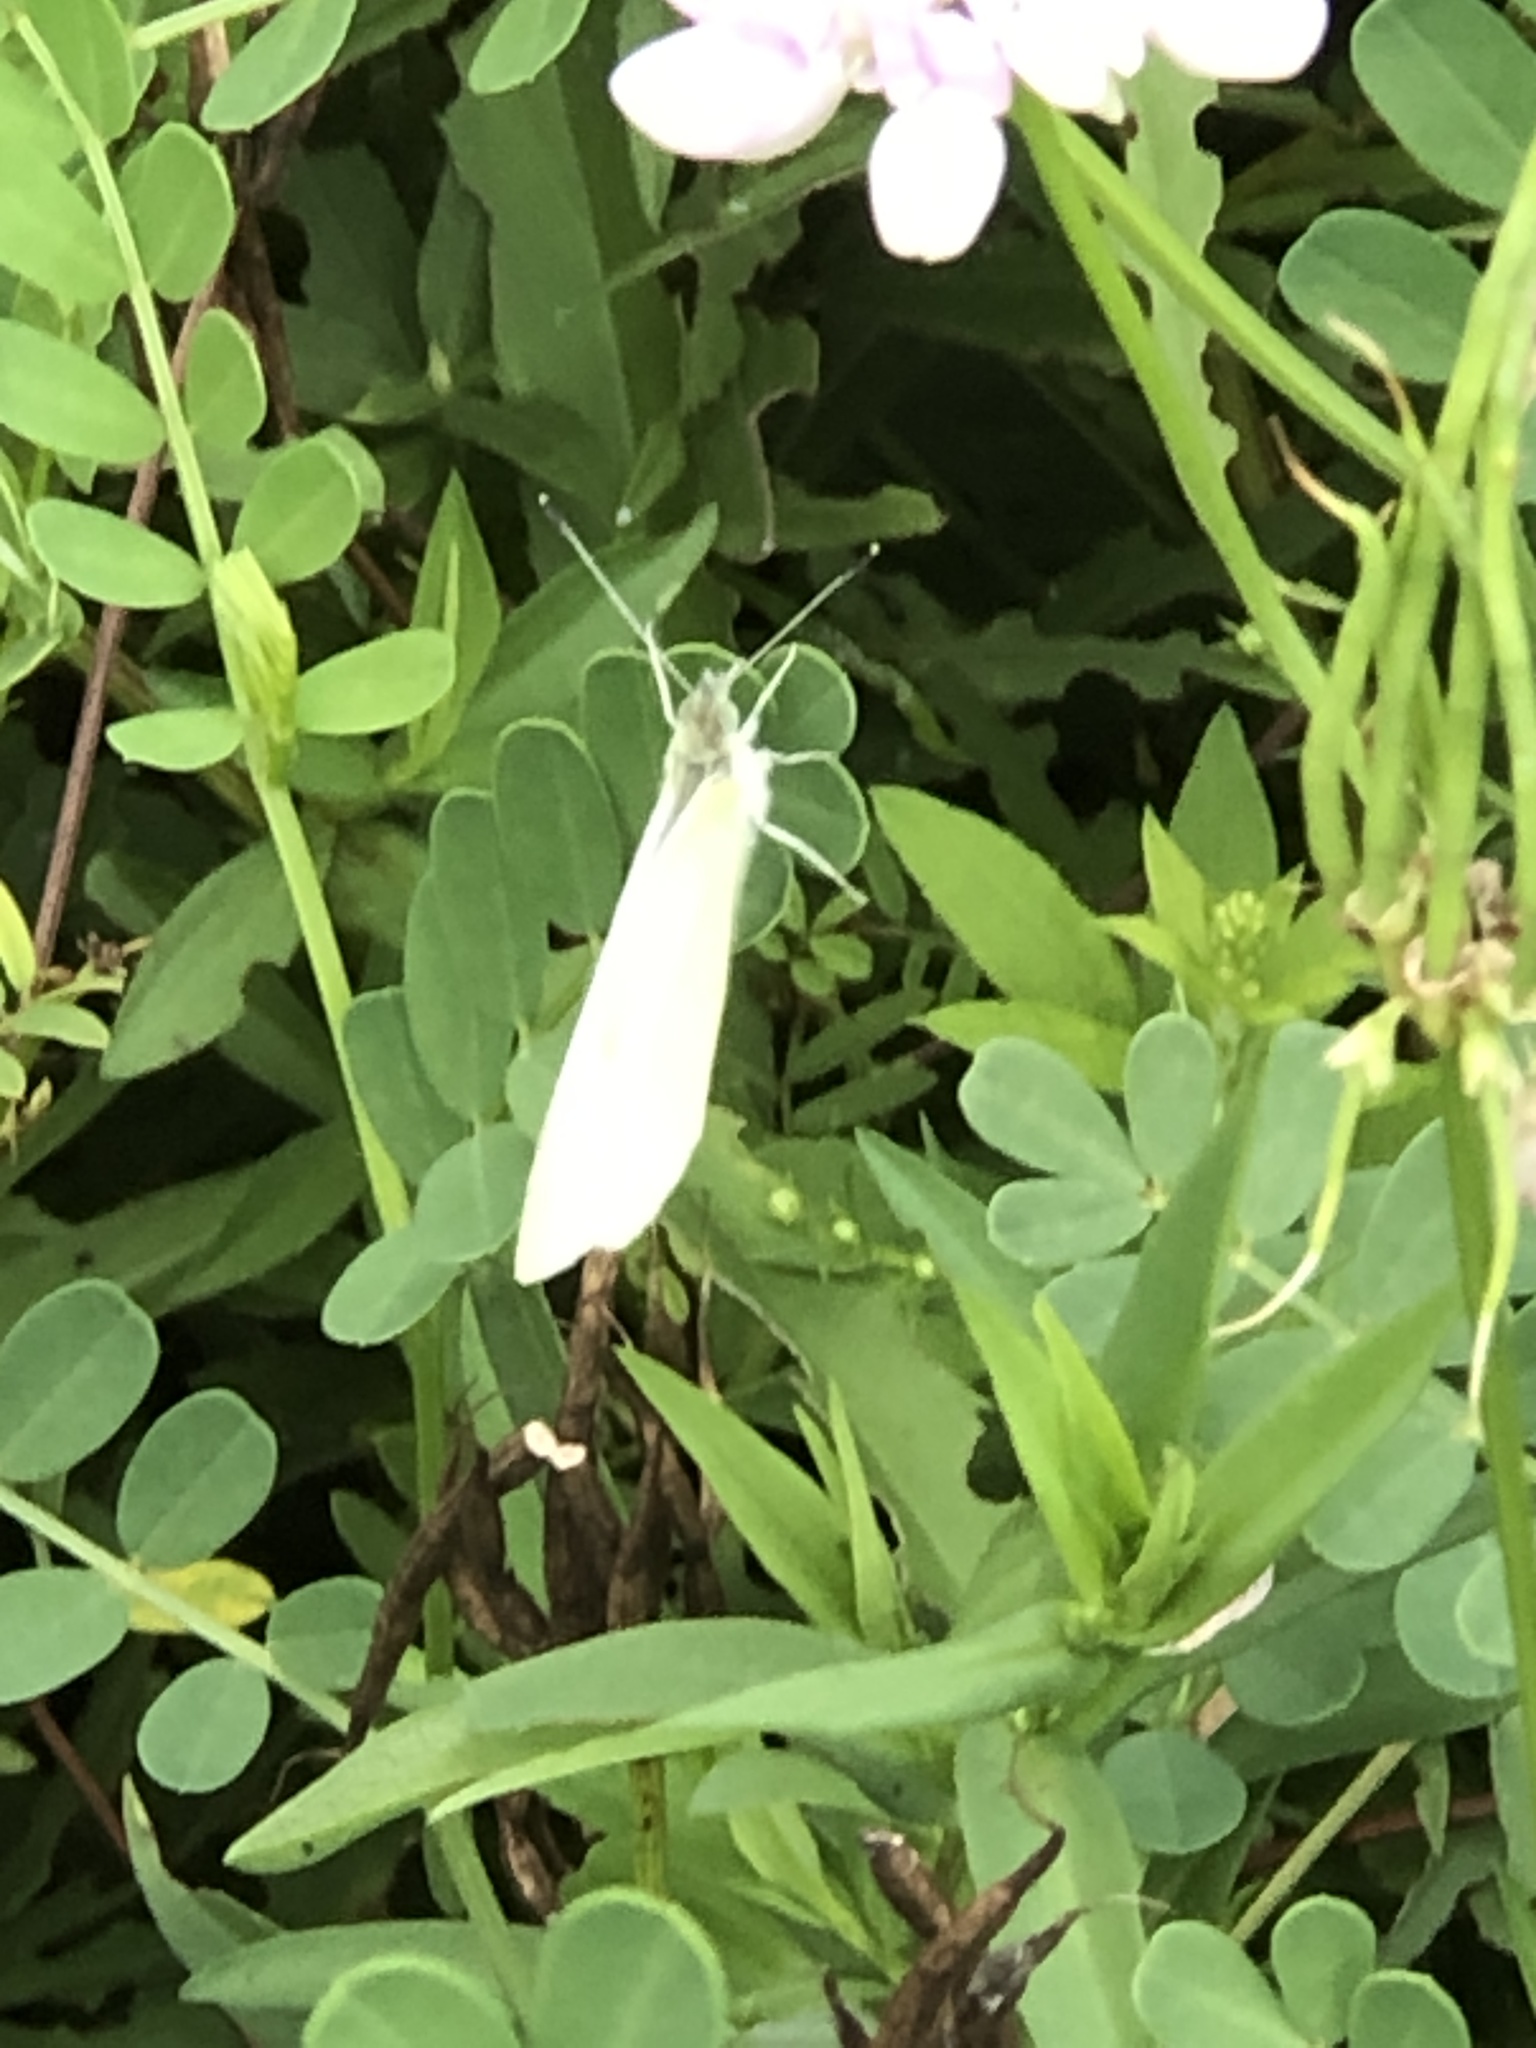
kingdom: Animalia
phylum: Arthropoda
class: Insecta
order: Lepidoptera
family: Pieridae
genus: Pieris
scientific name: Pieris rapae
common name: Small white
